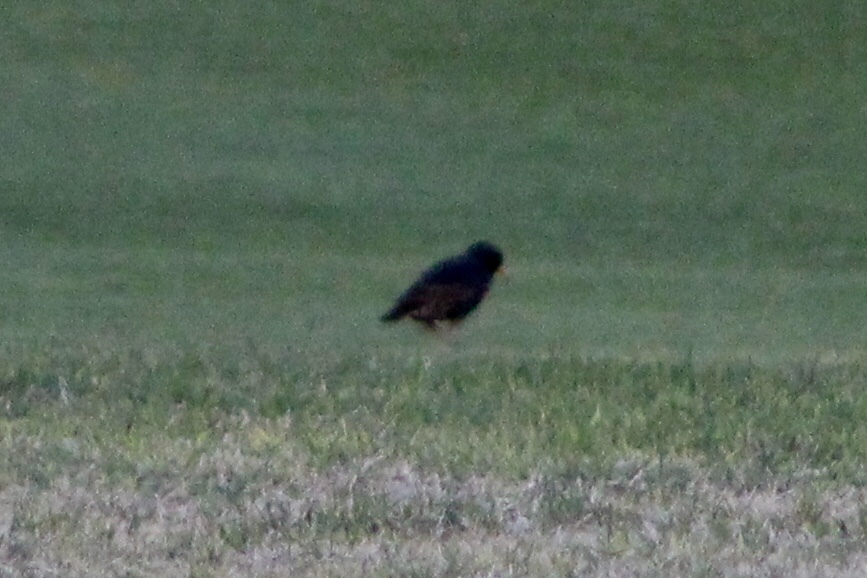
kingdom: Animalia
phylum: Chordata
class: Aves
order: Passeriformes
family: Sturnidae
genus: Sturnus
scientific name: Sturnus vulgaris
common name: Common starling
